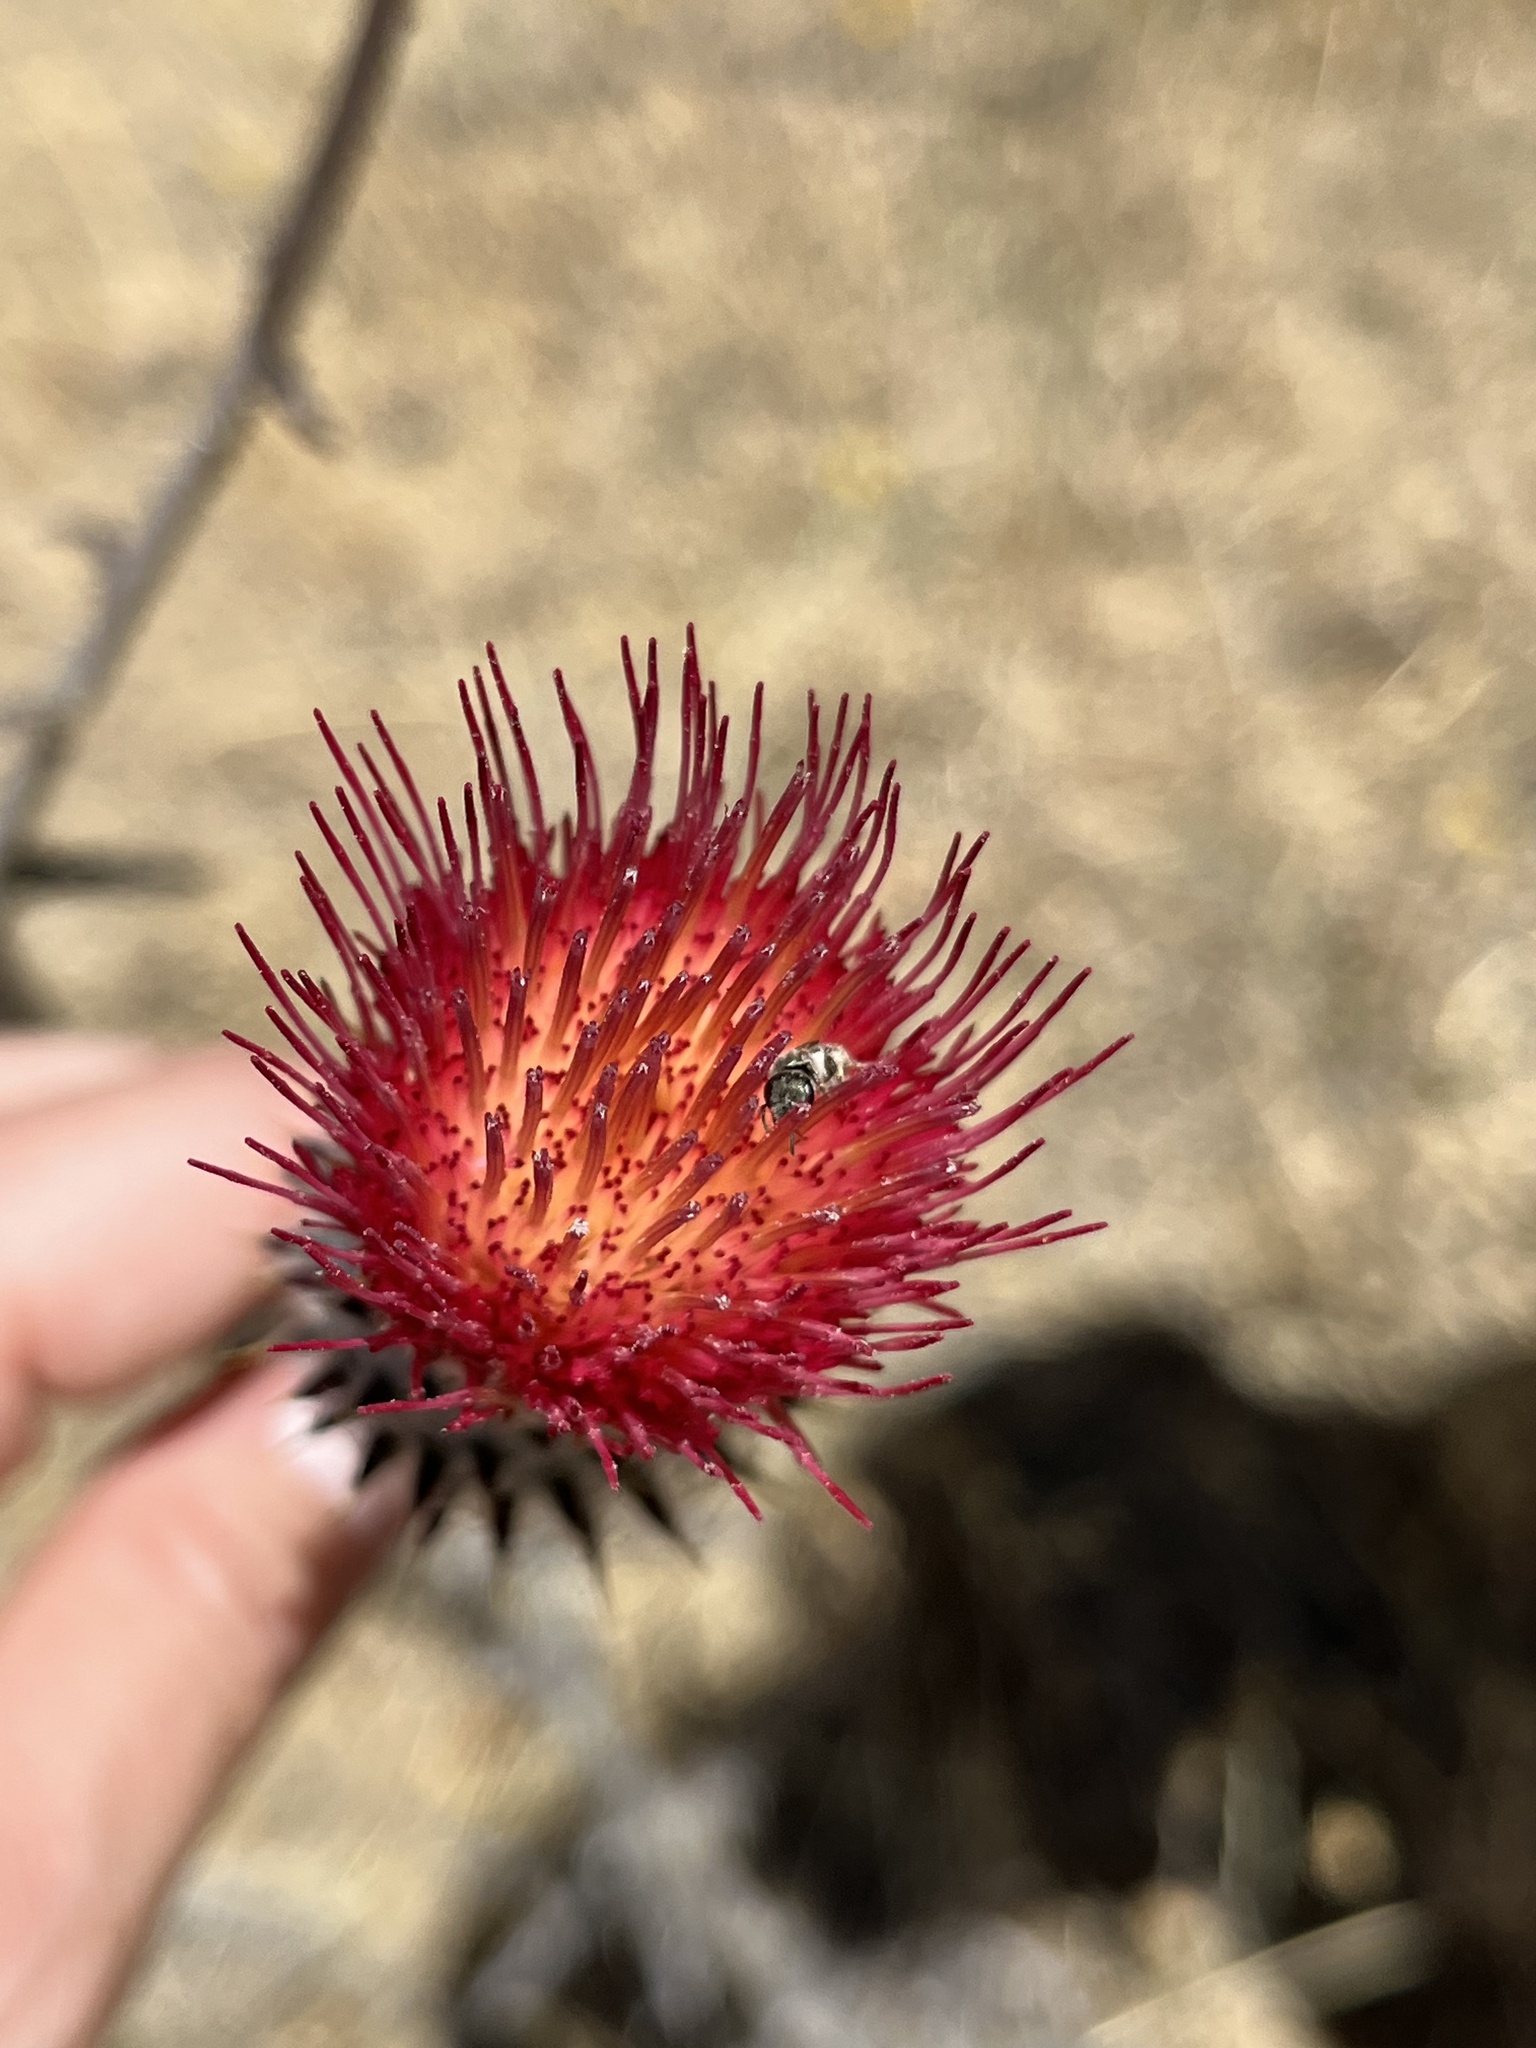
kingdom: Animalia
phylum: Arthropoda
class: Insecta
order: Hymenoptera
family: Halictidae
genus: Halictus
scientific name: Halictus tripartitus
